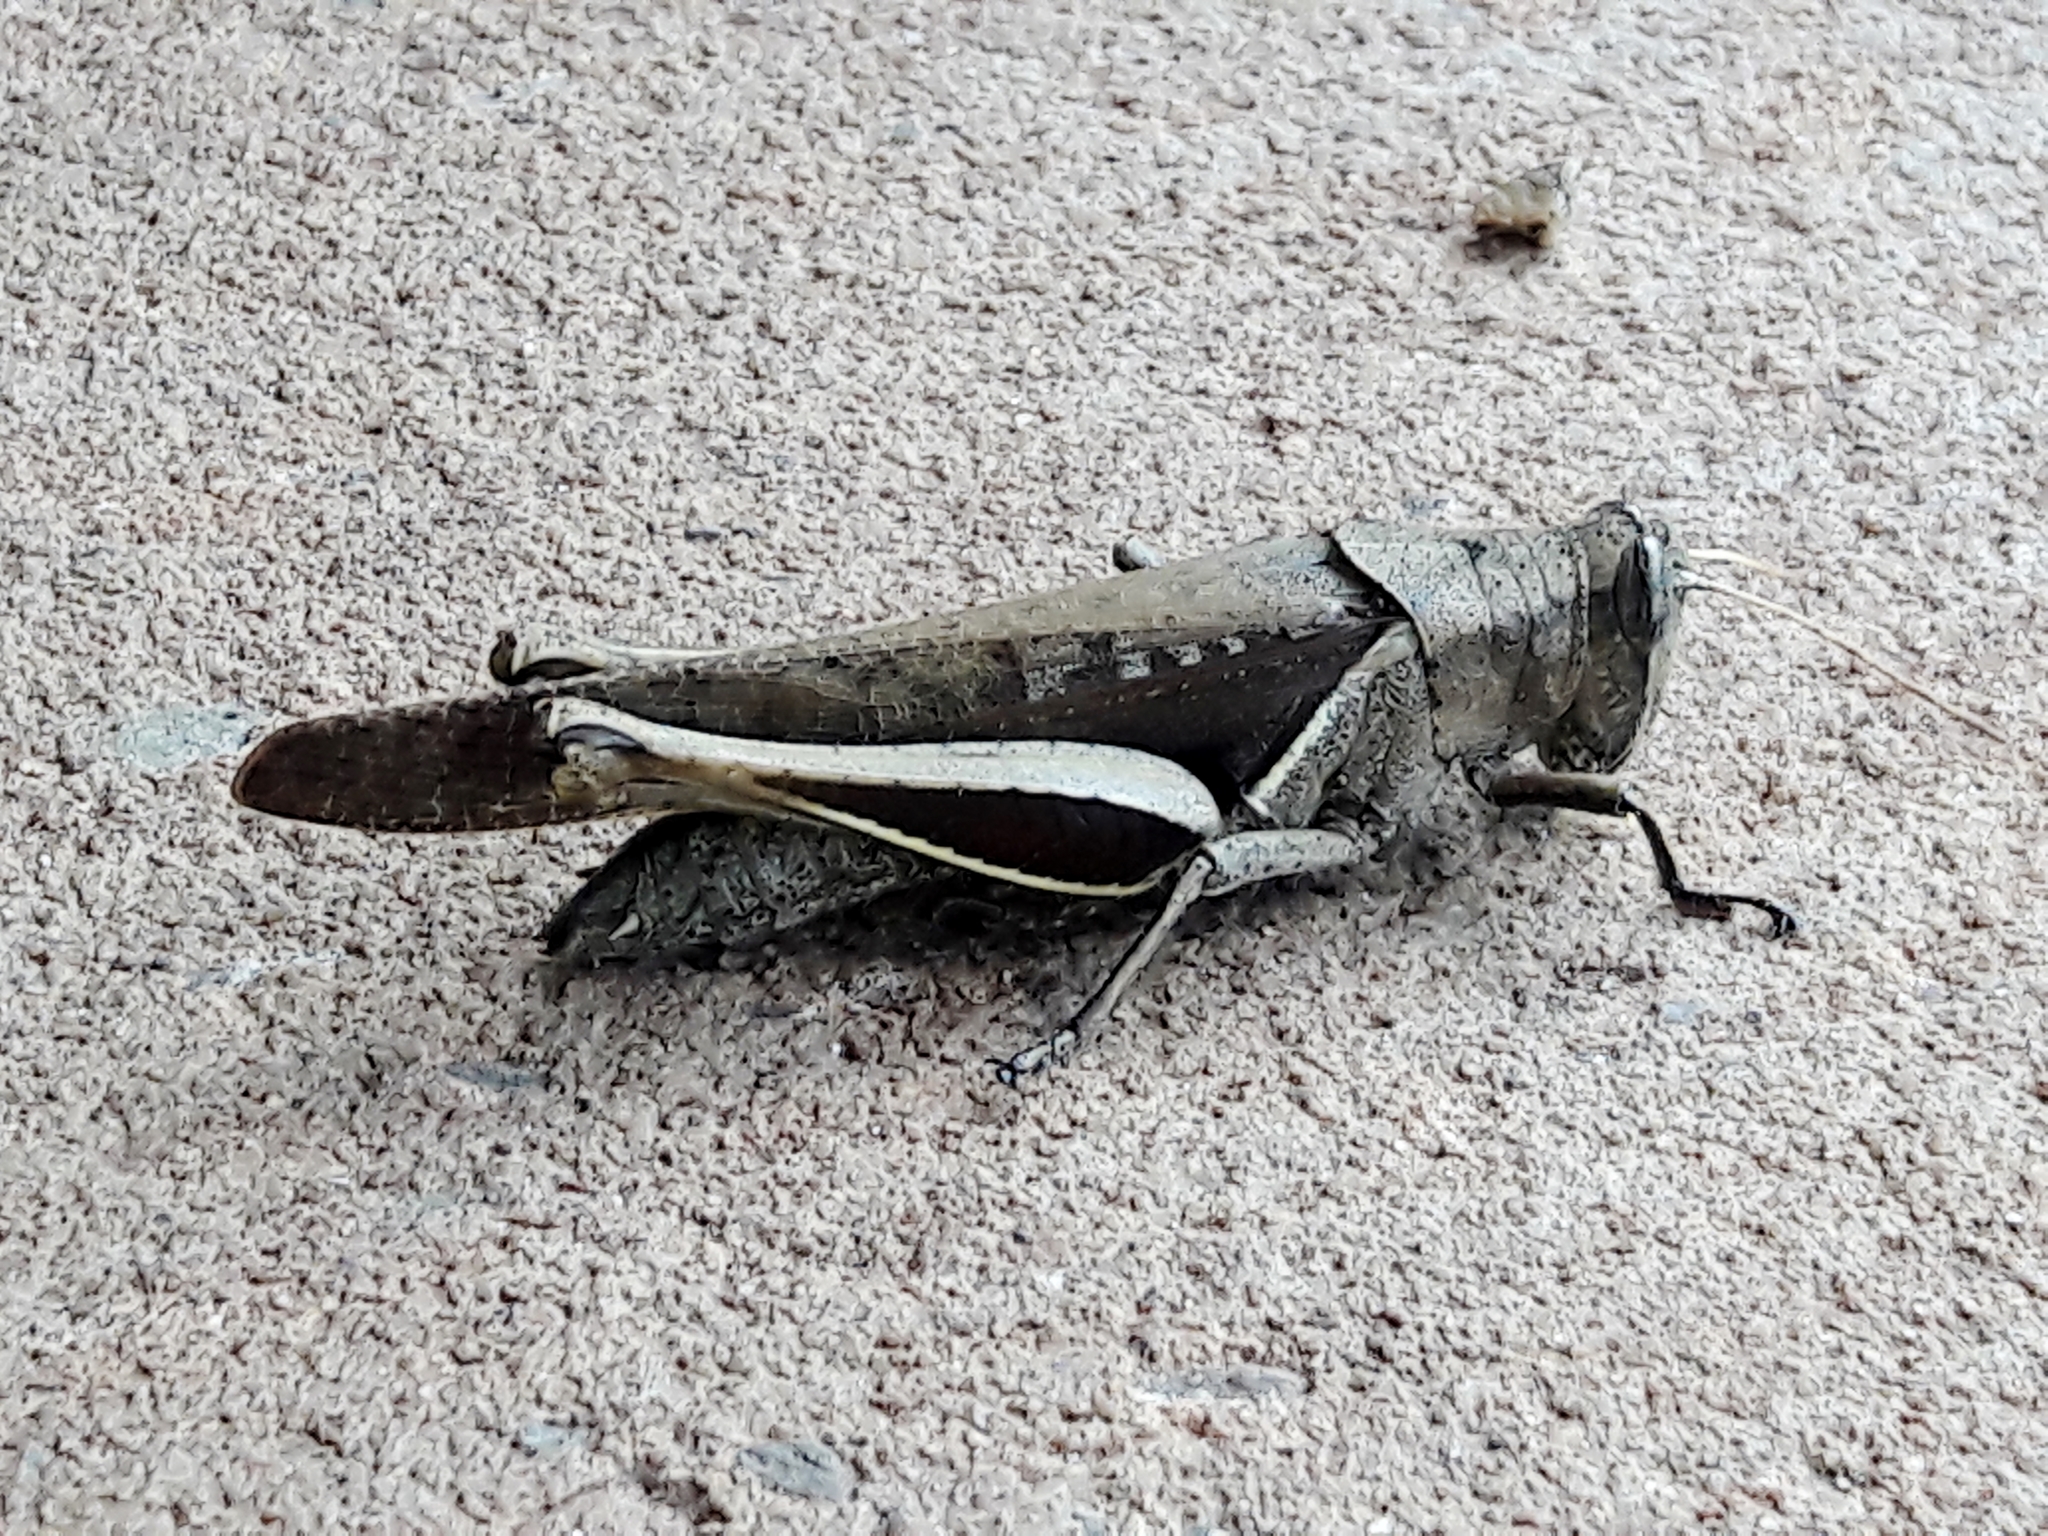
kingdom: Animalia
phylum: Arthropoda
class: Insecta
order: Orthoptera
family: Acrididae
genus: Abracris
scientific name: Abracris flavolineata
